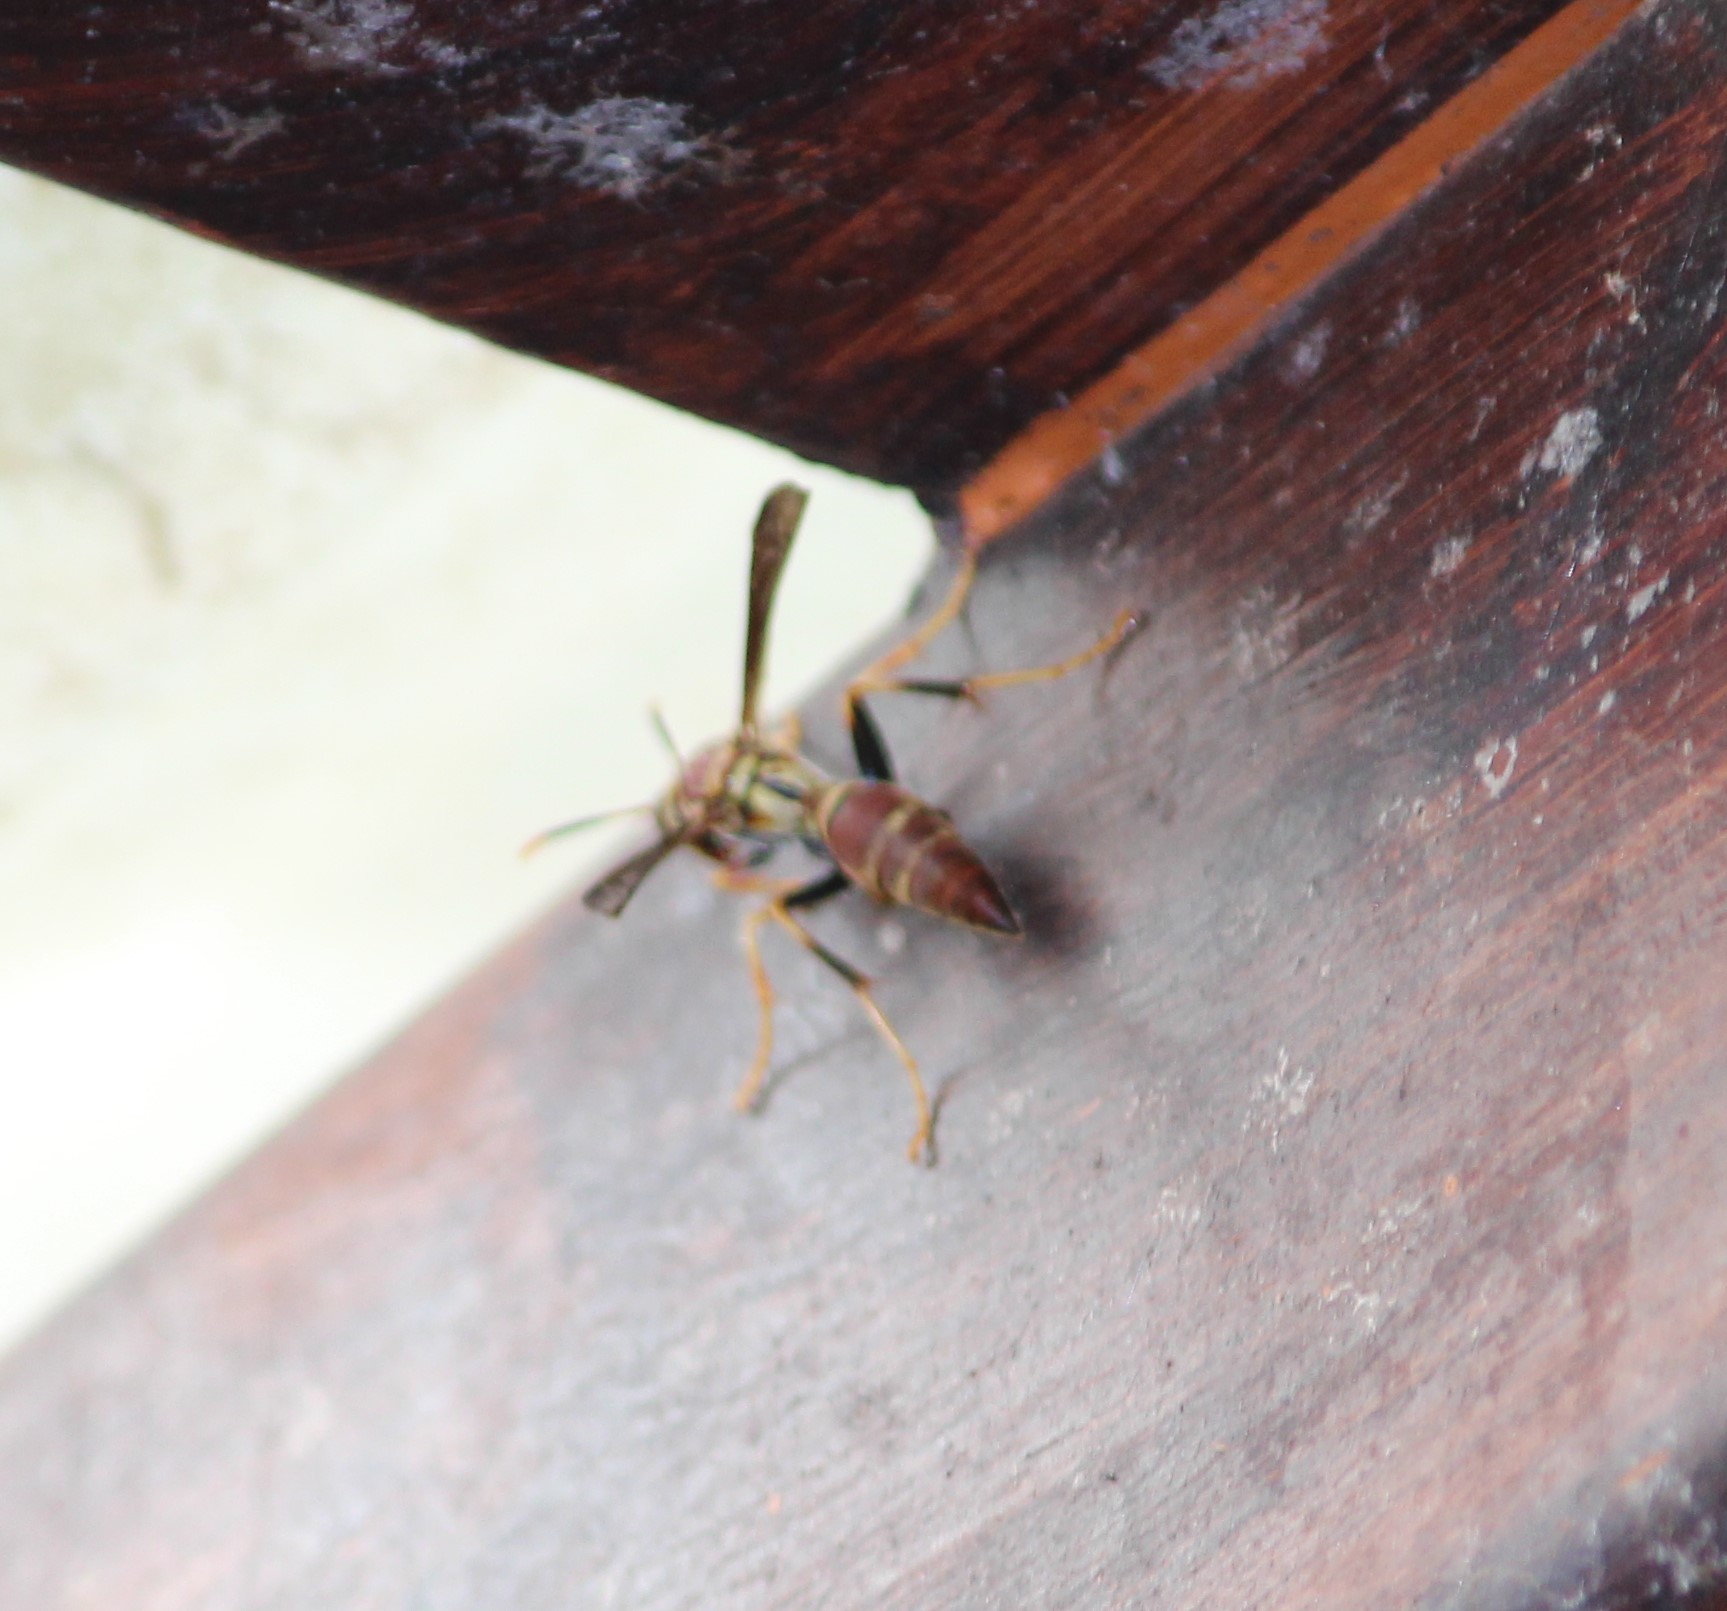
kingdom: Animalia
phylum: Arthropoda
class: Insecta
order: Hymenoptera
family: Eumenidae
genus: Polistes
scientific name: Polistes instabilis
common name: Unstable paper wasp
